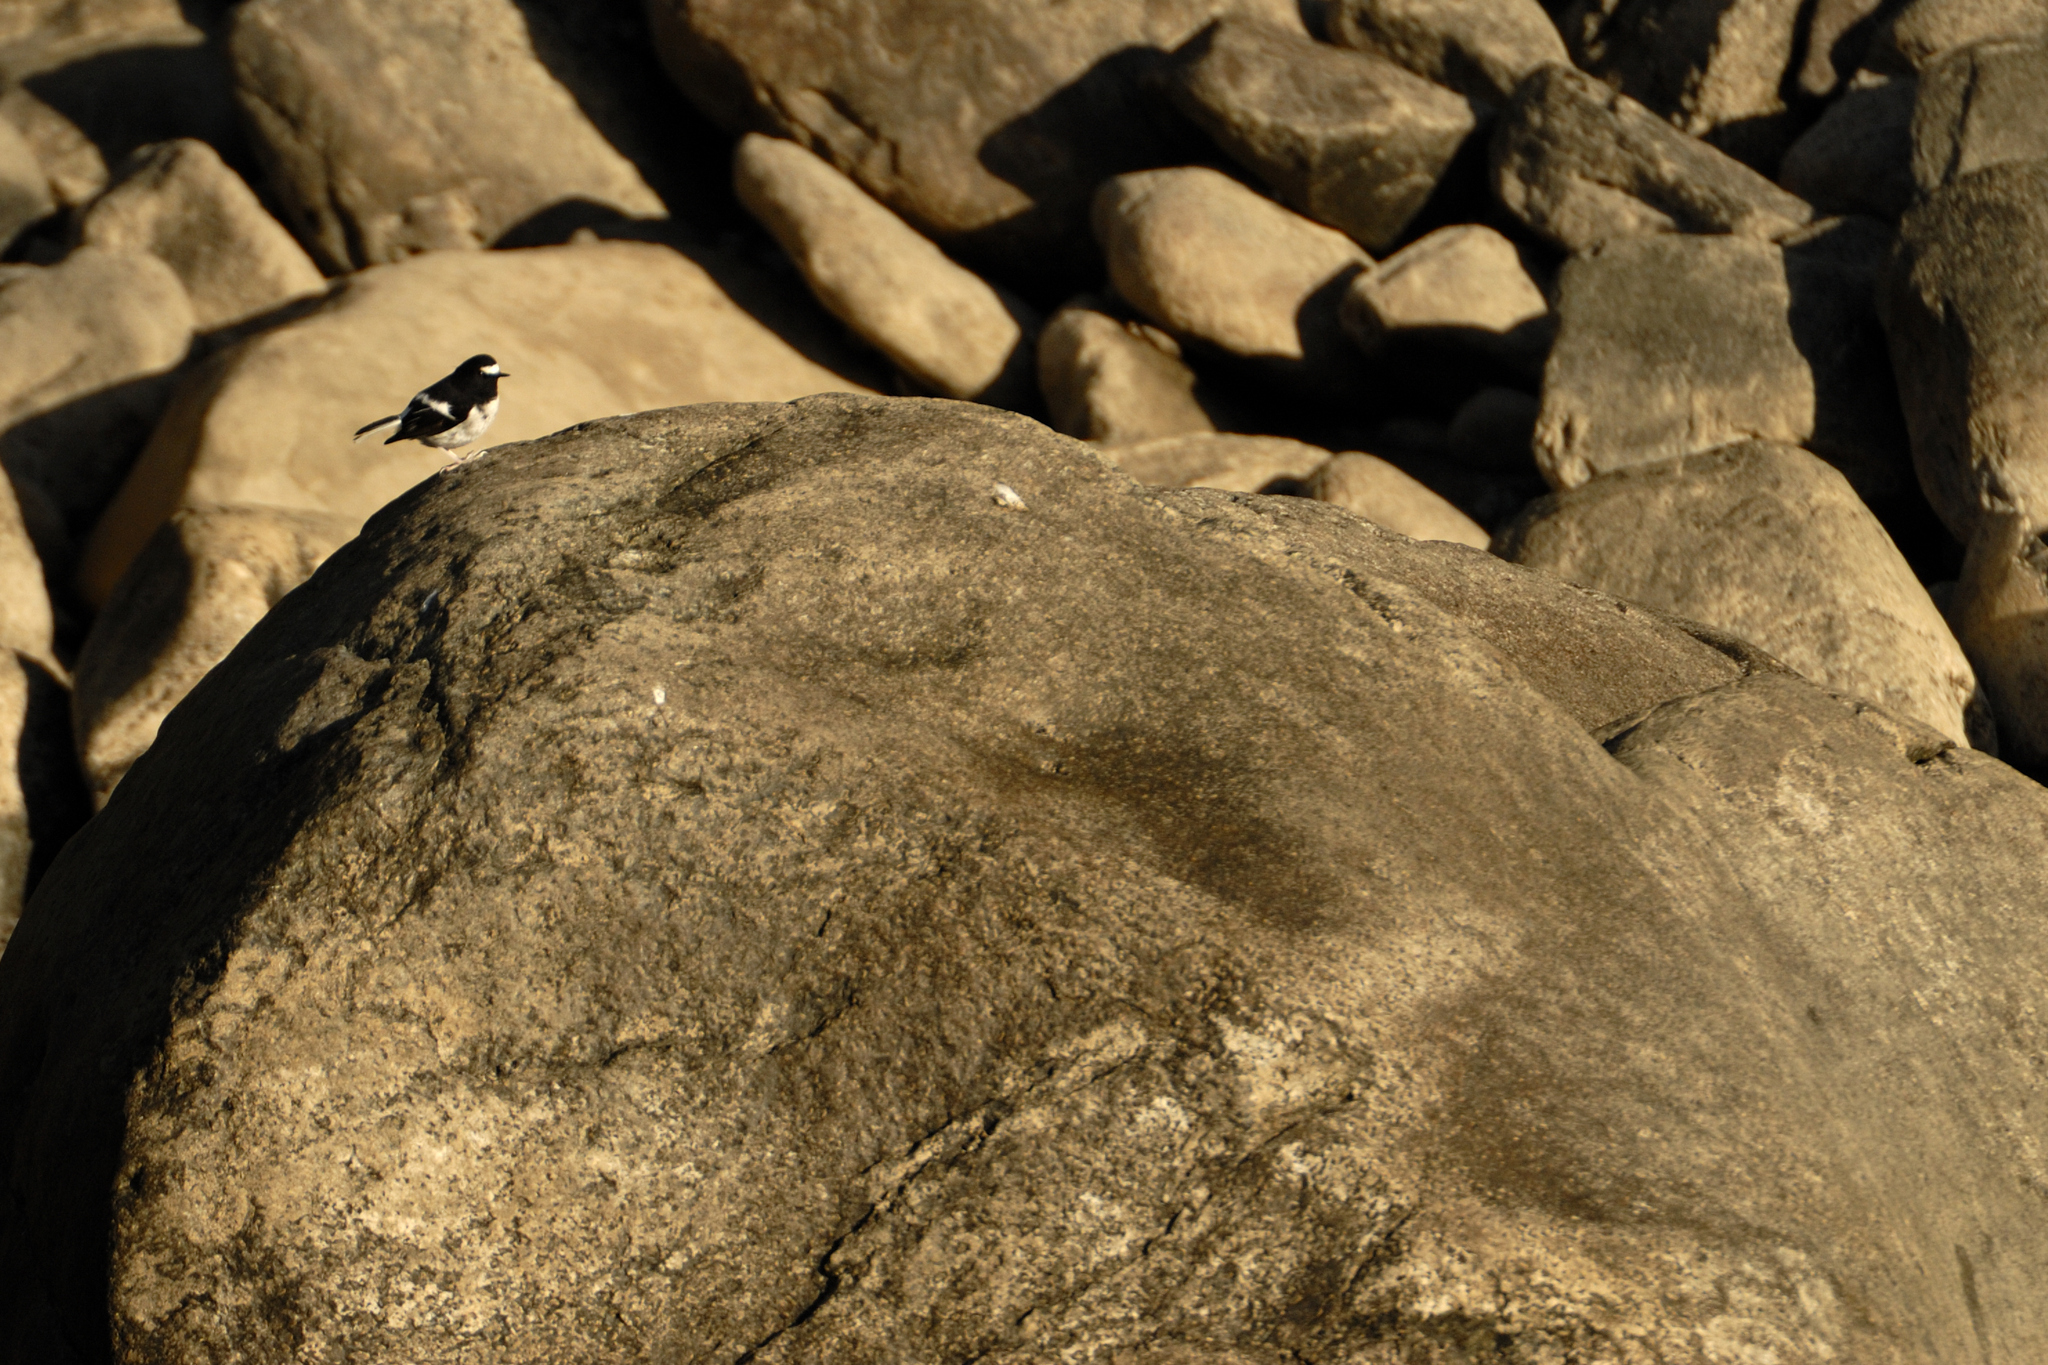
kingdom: Animalia
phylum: Chordata
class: Aves
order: Passeriformes
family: Muscicapidae
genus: Enicurus
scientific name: Enicurus scouleri
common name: Little forktail
